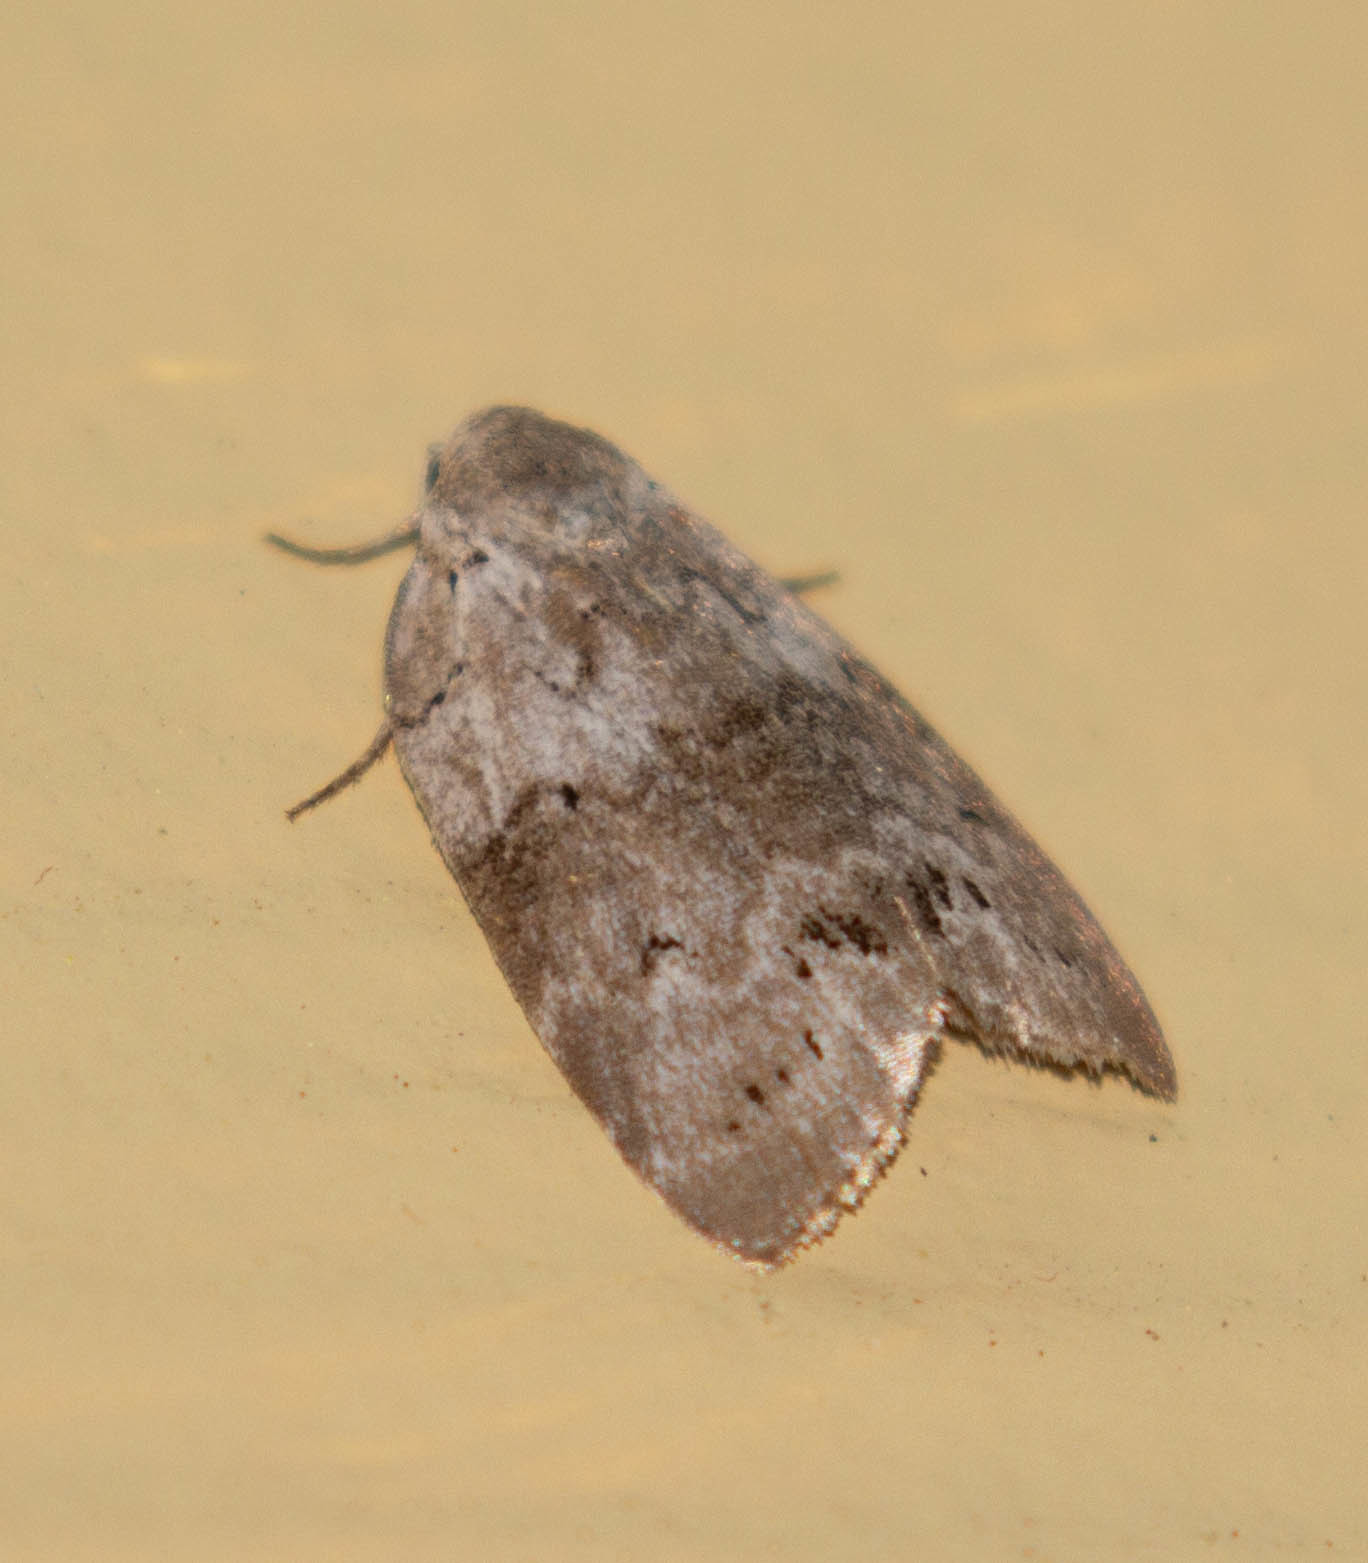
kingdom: Animalia
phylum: Arthropoda
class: Insecta
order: Lepidoptera
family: Noctuidae
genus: Polygrammate
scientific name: Polygrammate
